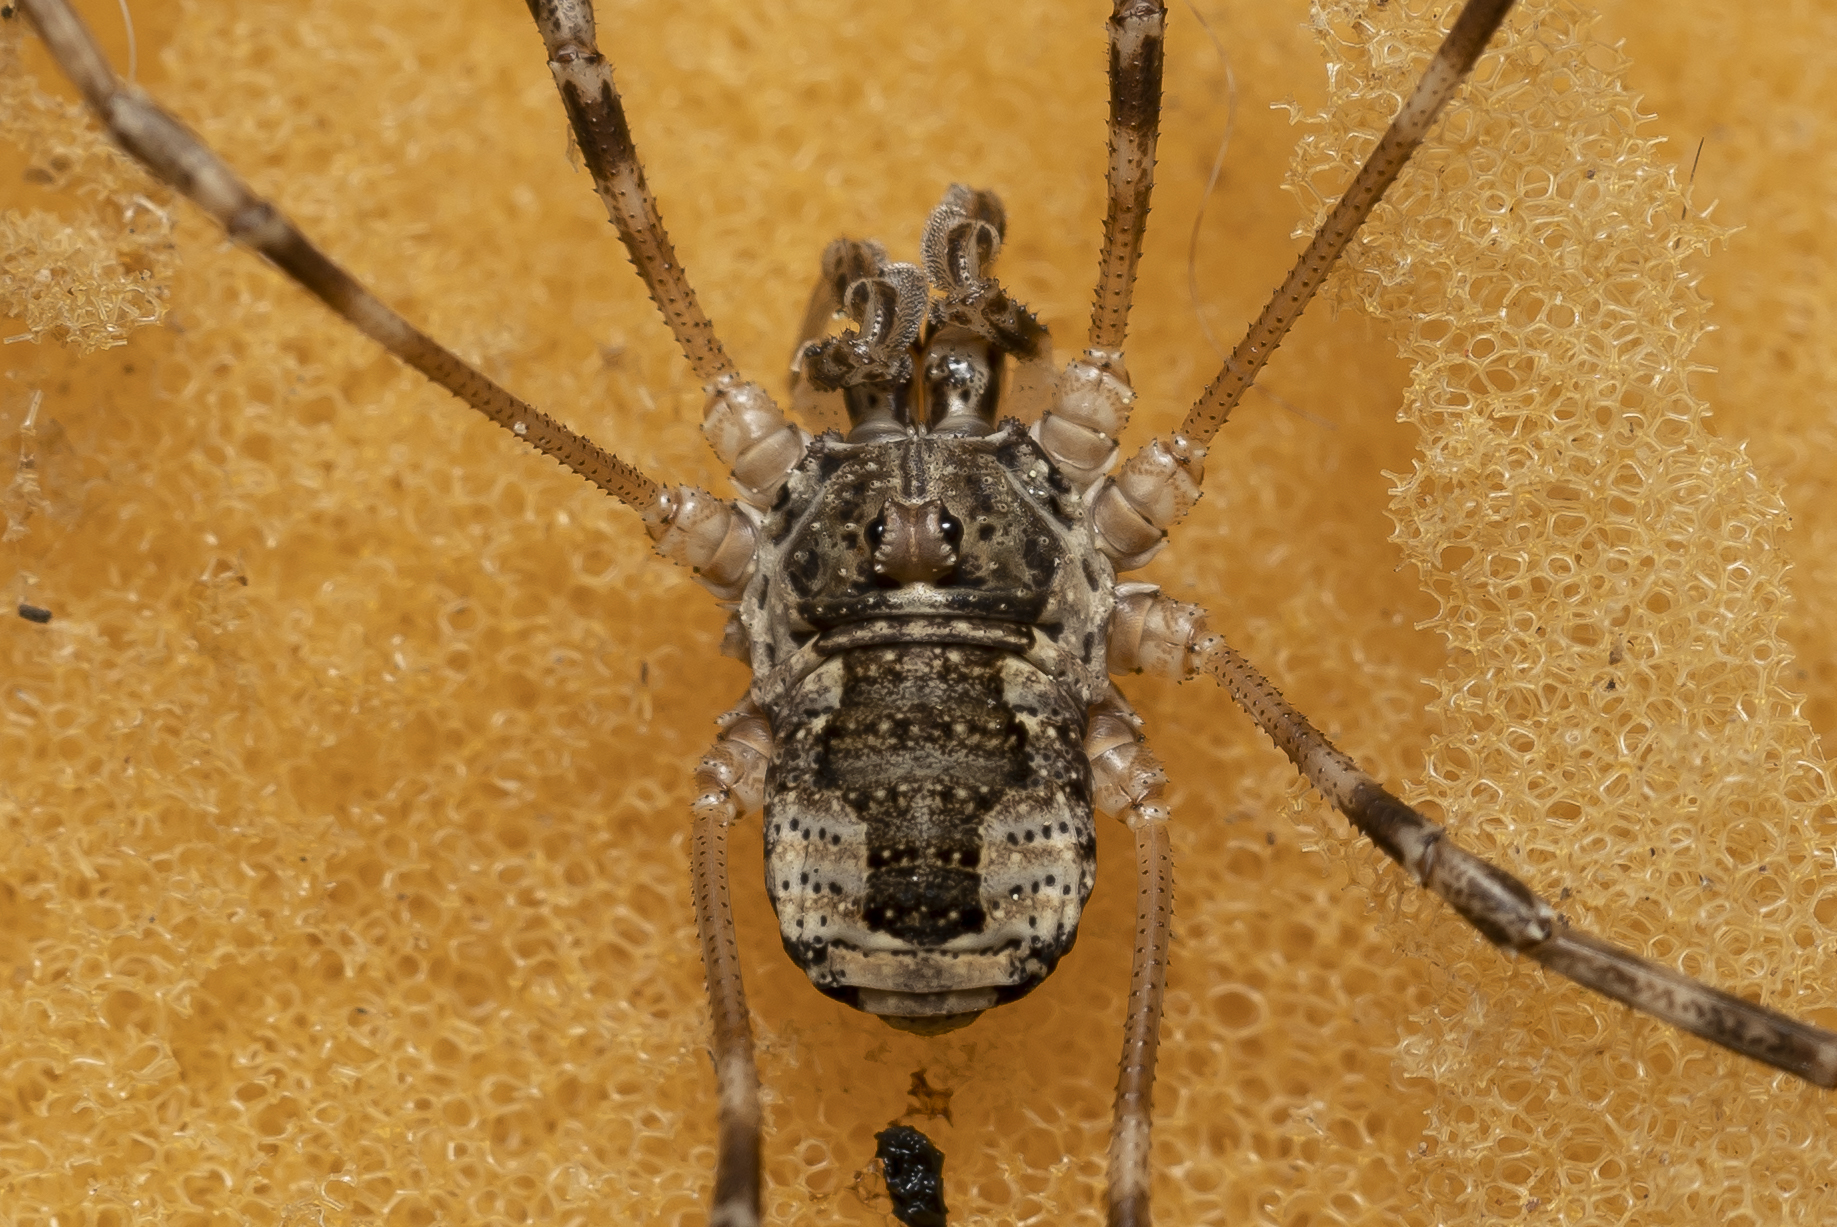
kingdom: Animalia
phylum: Arthropoda
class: Arachnida
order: Opiliones
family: Phalangiidae
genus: Rafalskia
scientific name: Rafalskia cretica
